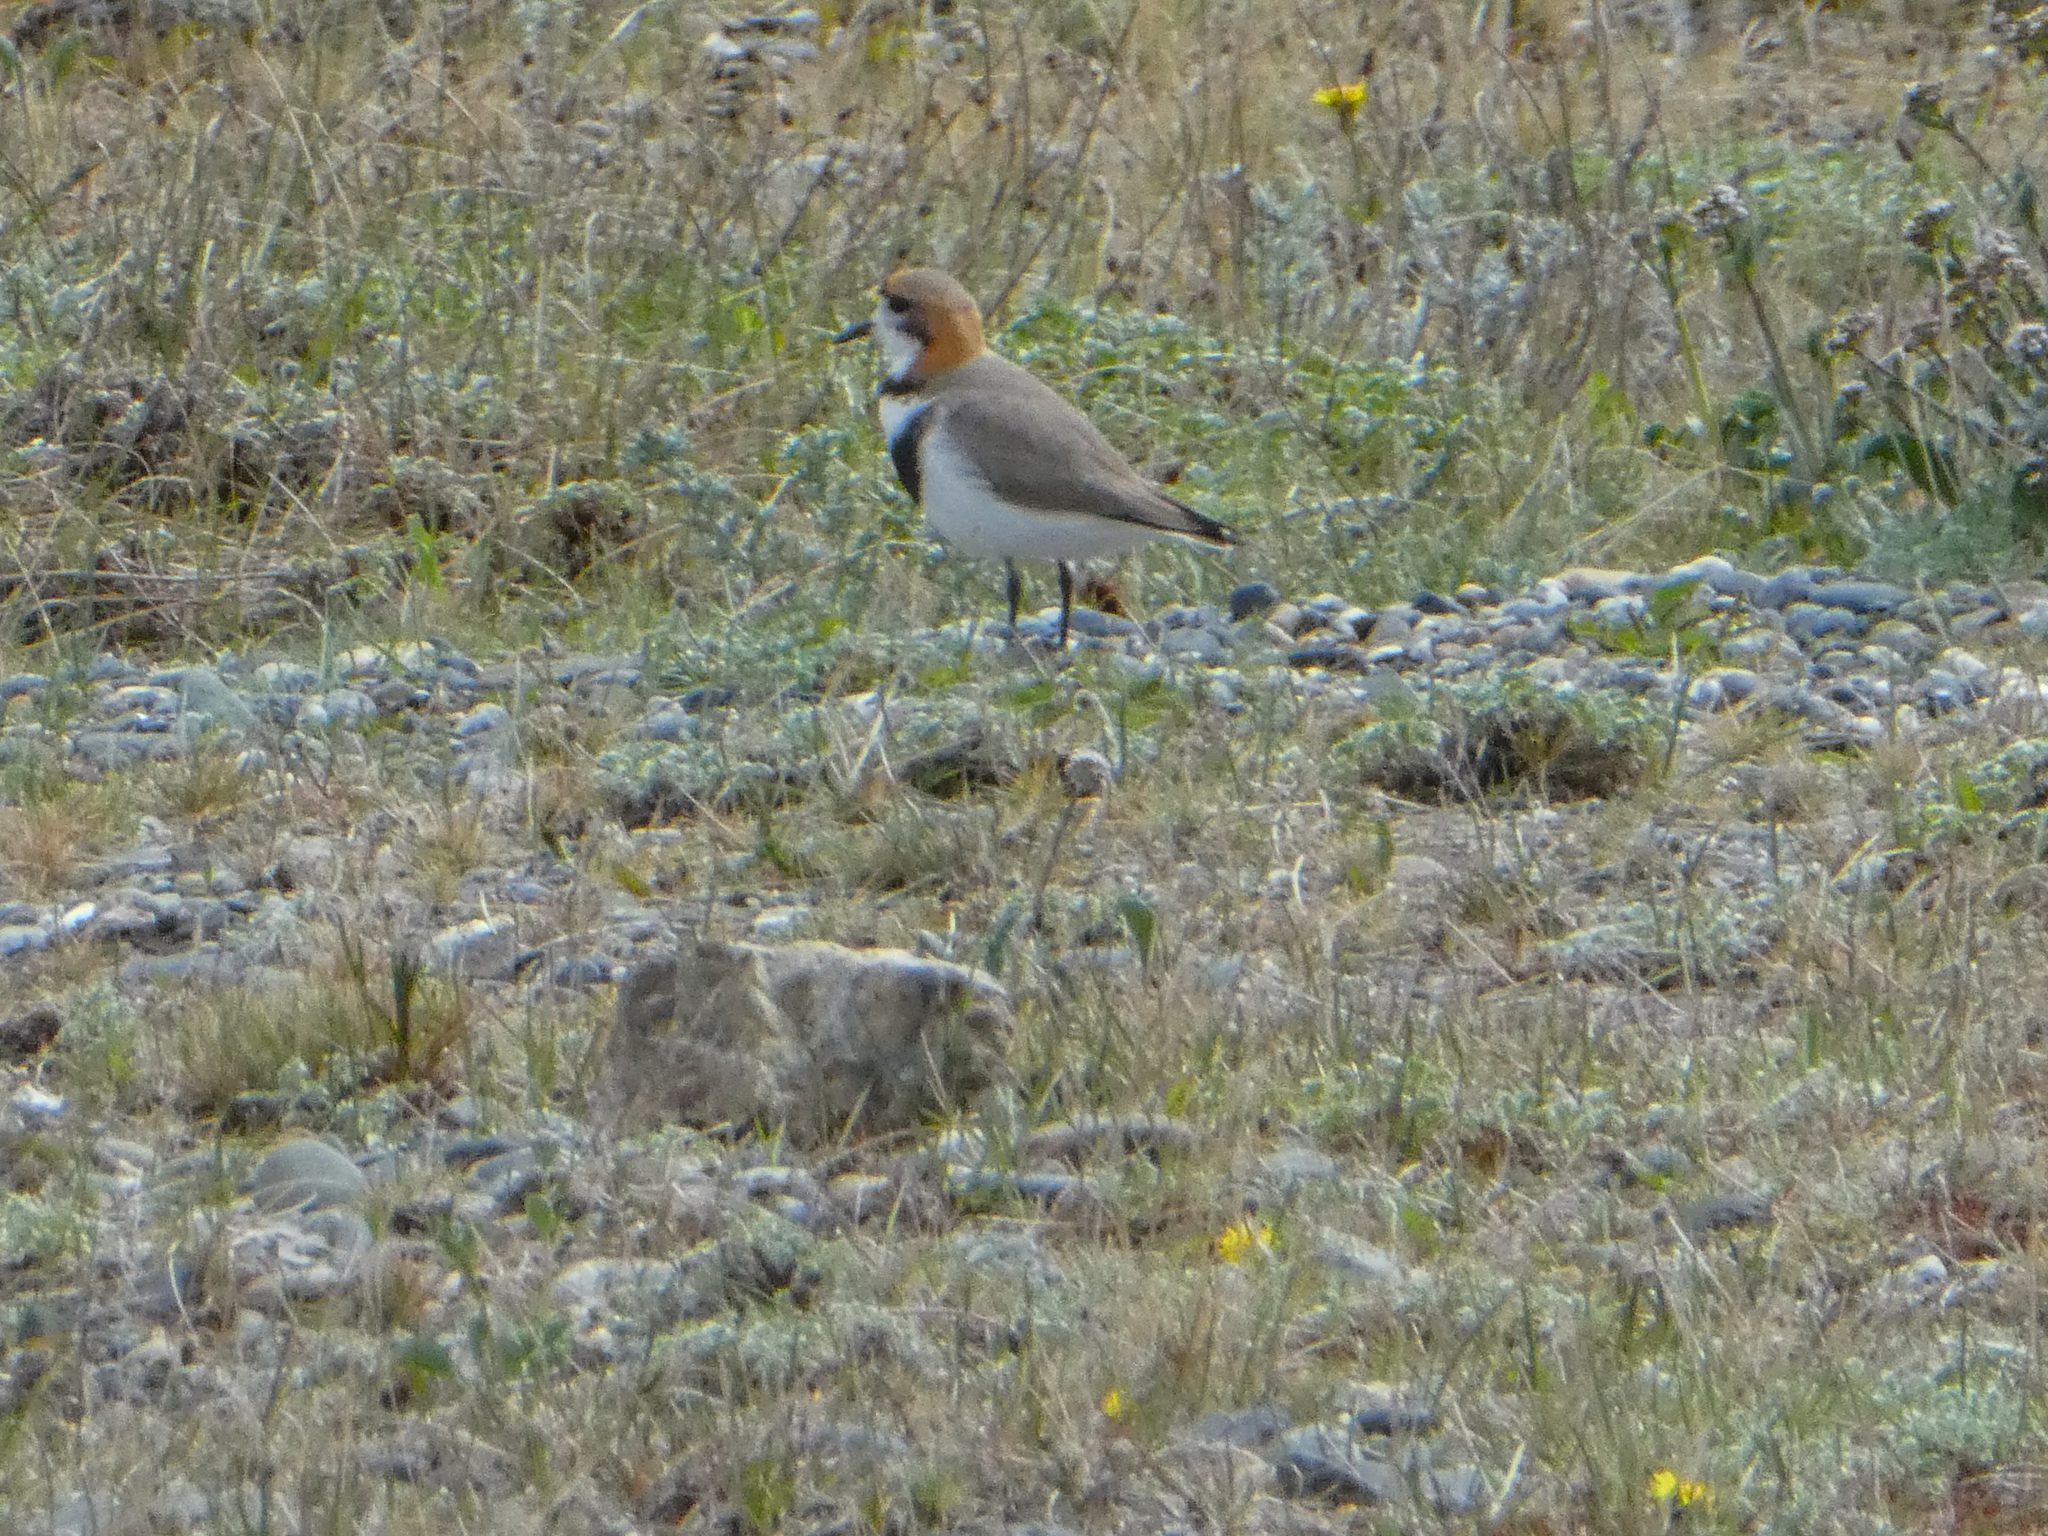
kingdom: Animalia
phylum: Chordata
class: Aves
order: Charadriiformes
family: Charadriidae
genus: Anarhynchus
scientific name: Anarhynchus
